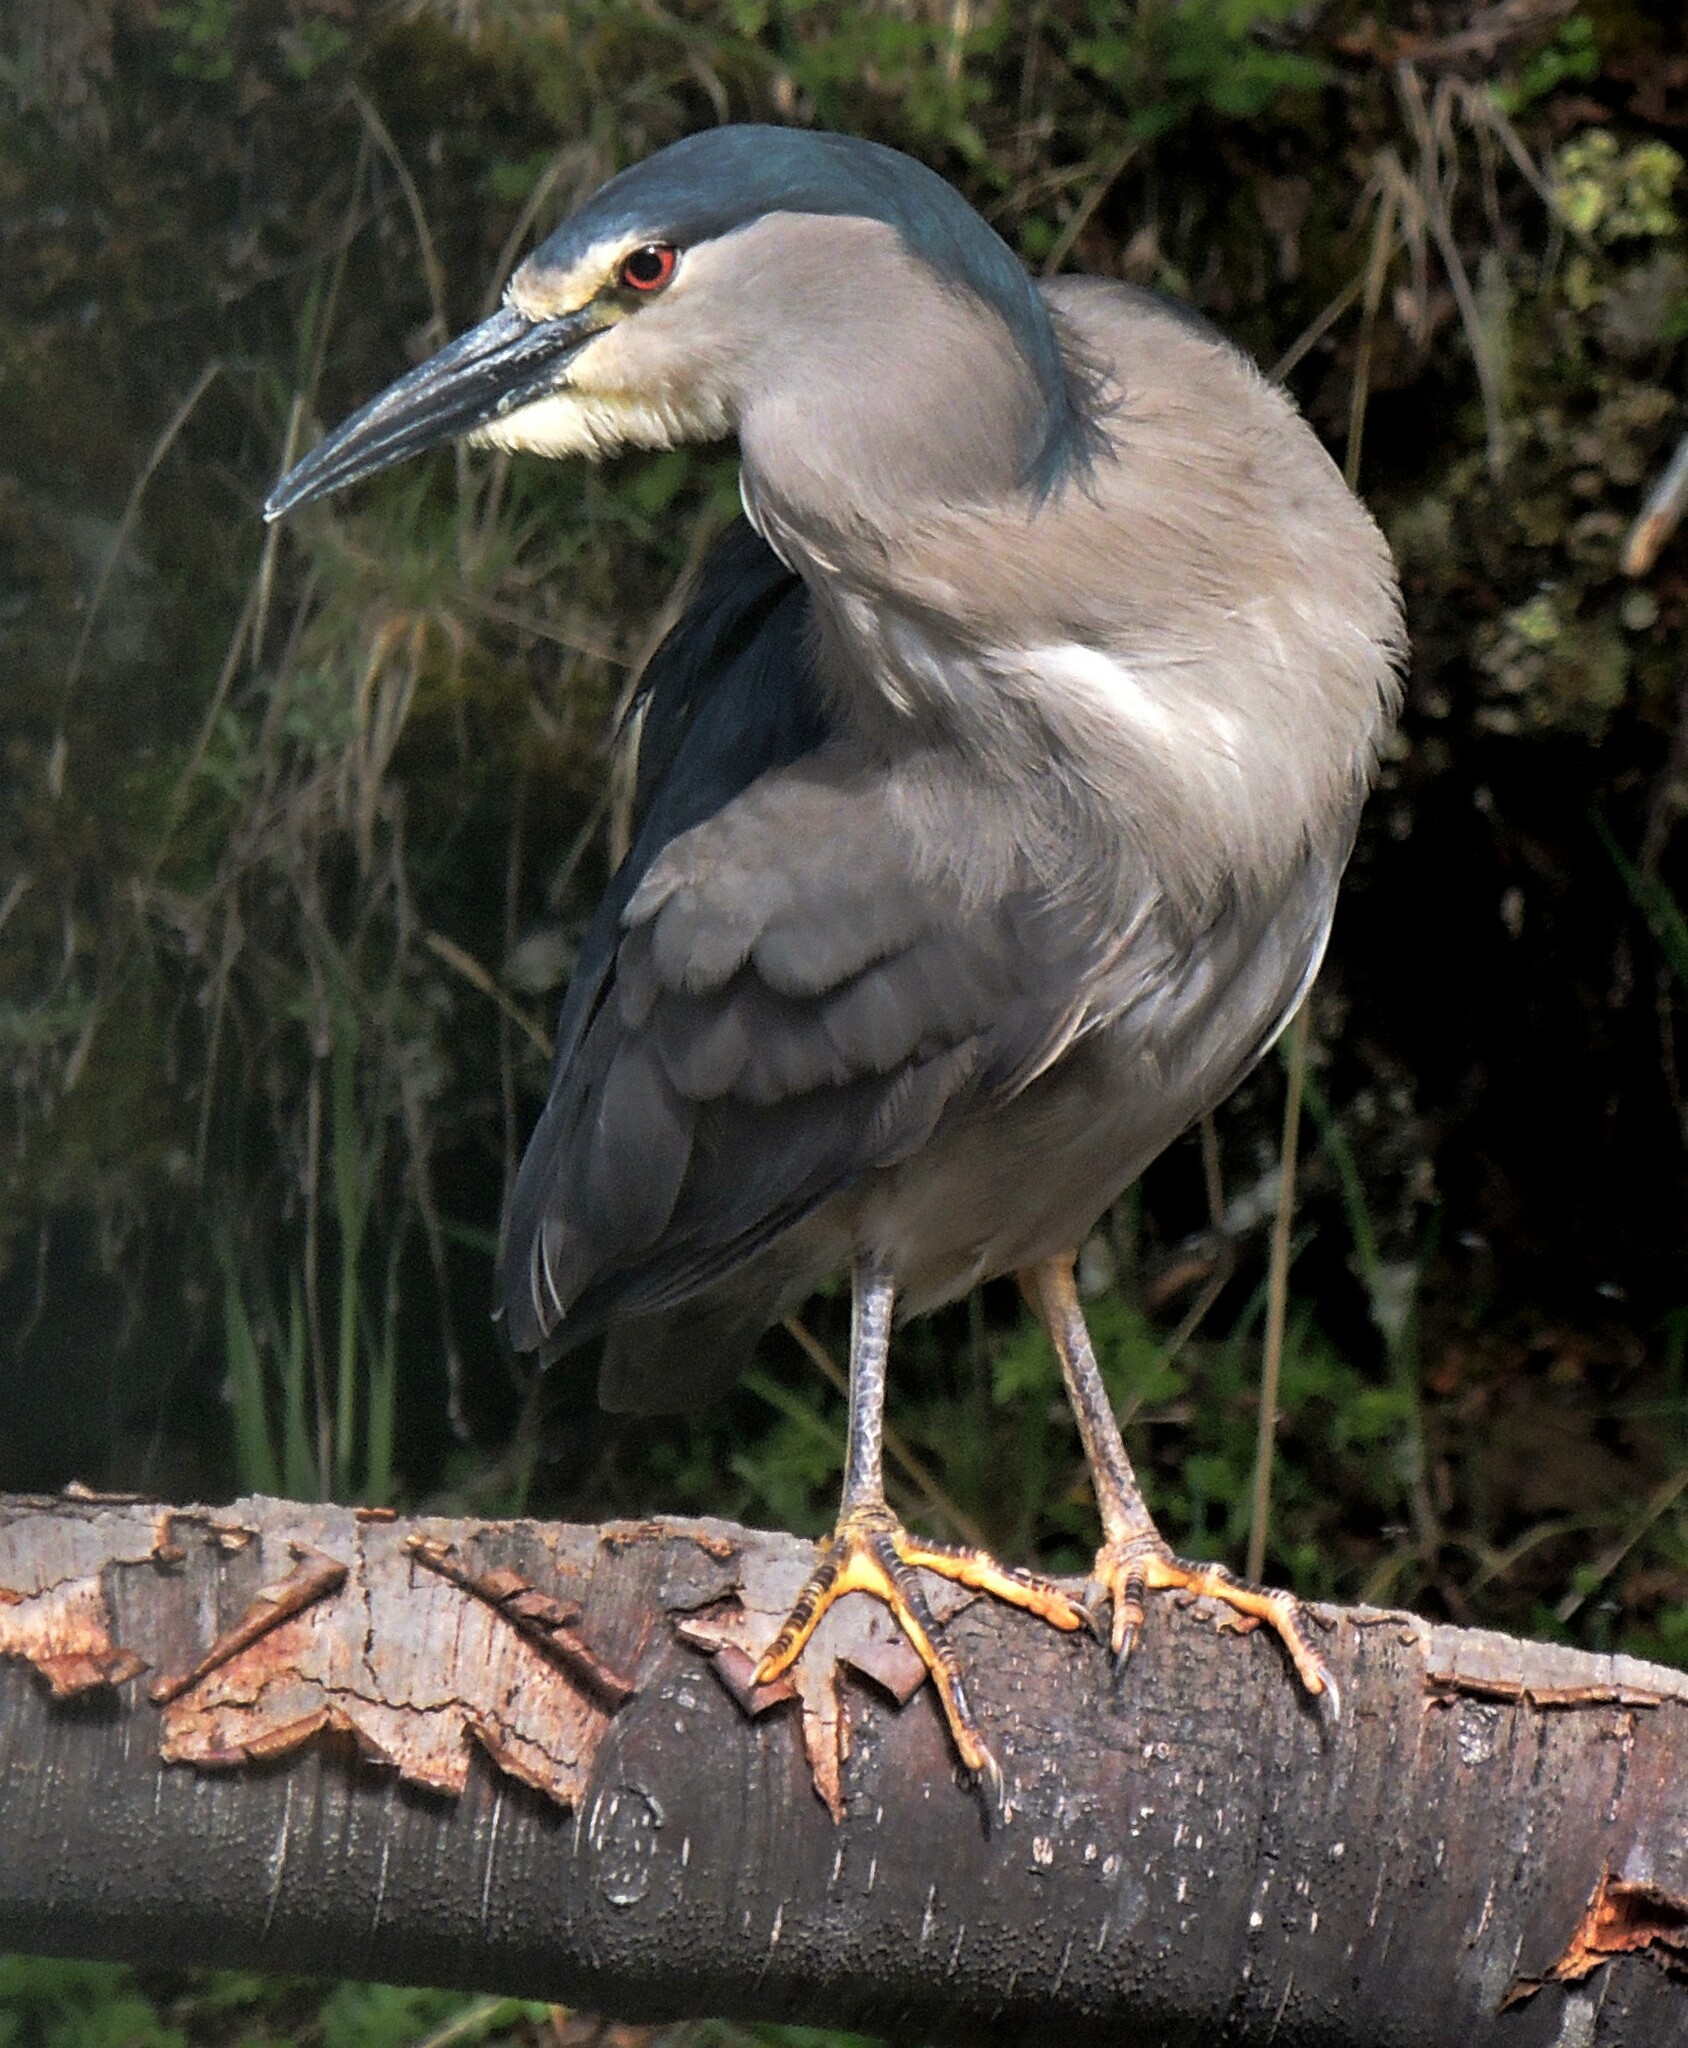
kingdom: Animalia
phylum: Chordata
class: Aves
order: Pelecaniformes
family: Ardeidae
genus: Nycticorax
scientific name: Nycticorax nycticorax
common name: Black-crowned night heron
